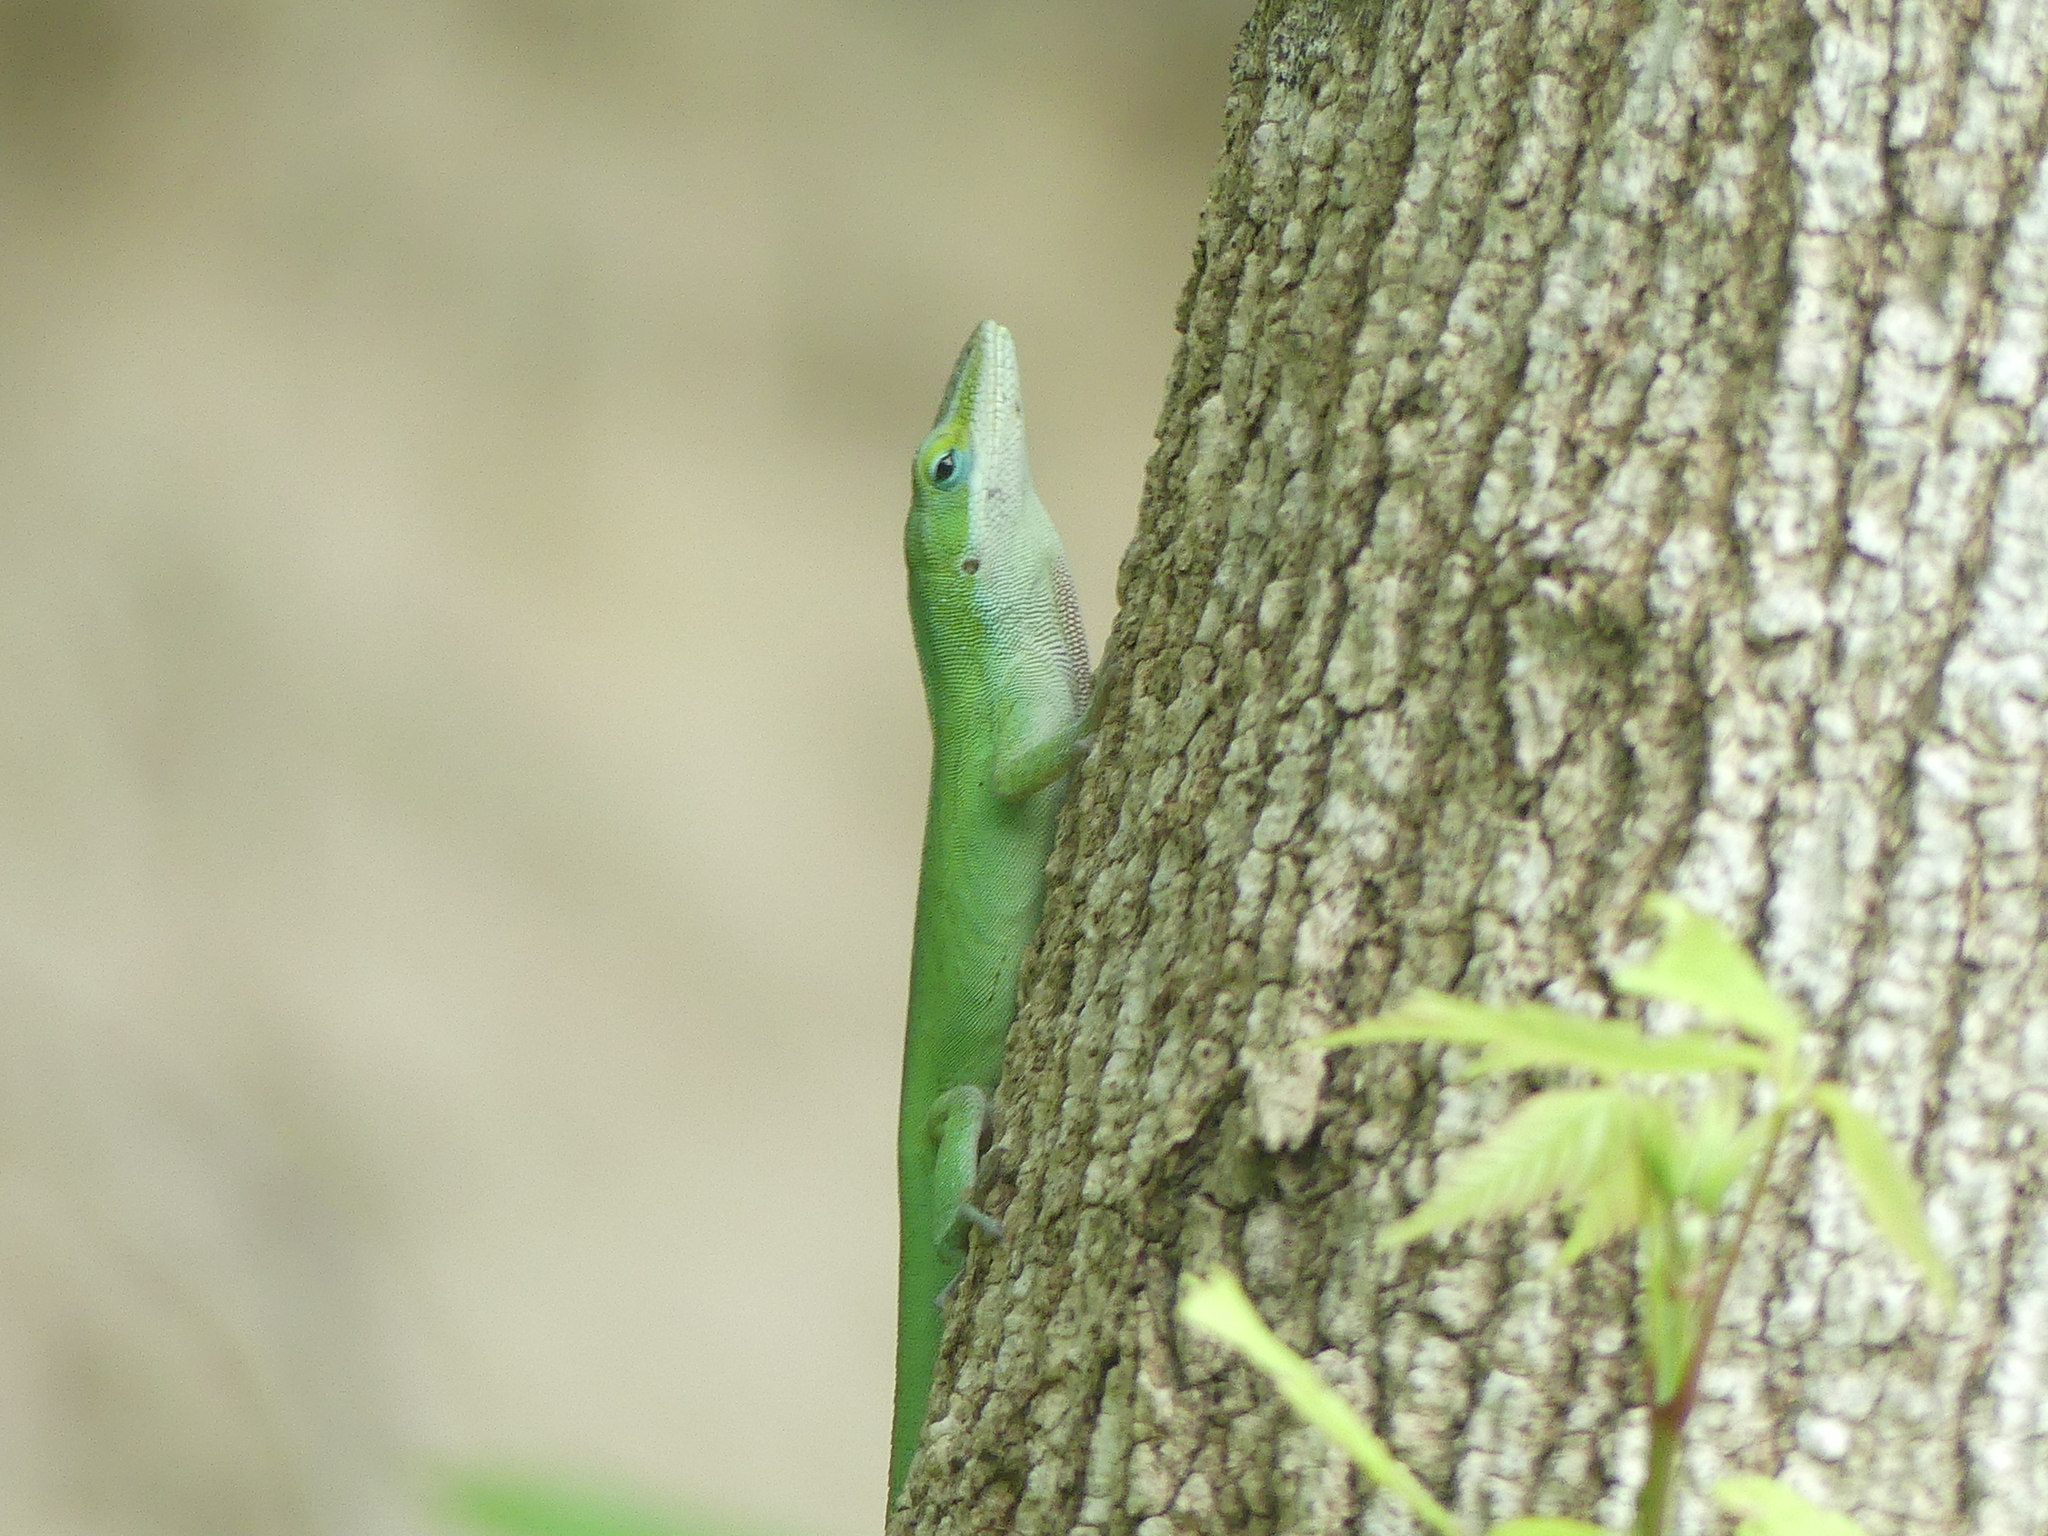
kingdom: Animalia
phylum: Chordata
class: Squamata
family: Dactyloidae
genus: Anolis
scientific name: Anolis carolinensis
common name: Green anole
